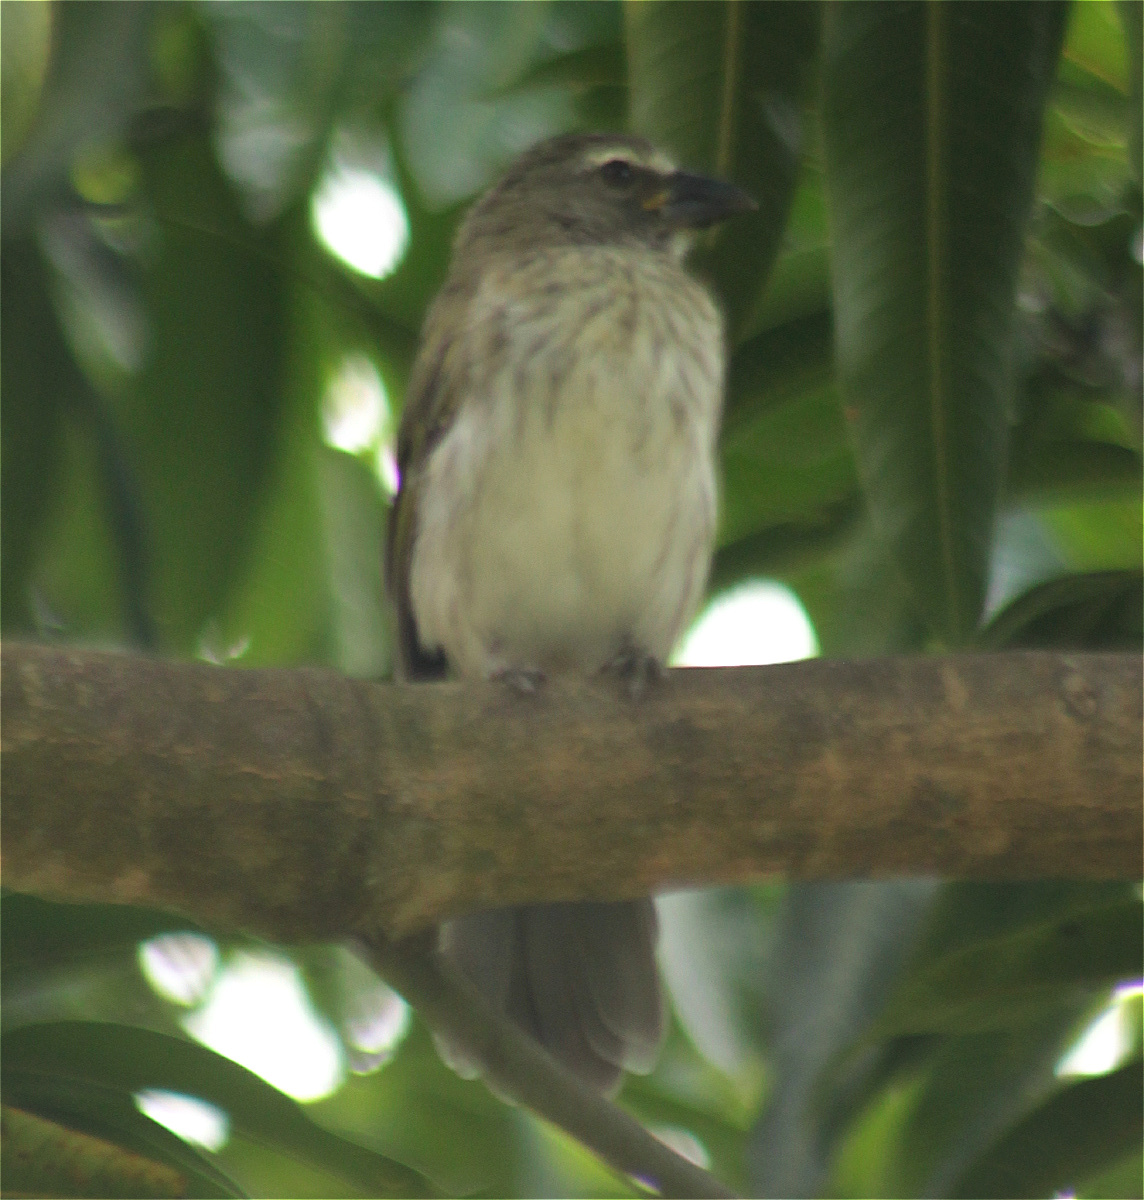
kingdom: Animalia
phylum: Chordata
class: Aves
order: Passeriformes
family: Thraupidae
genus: Saltator
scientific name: Saltator striatipectus
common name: Streaked saltator
